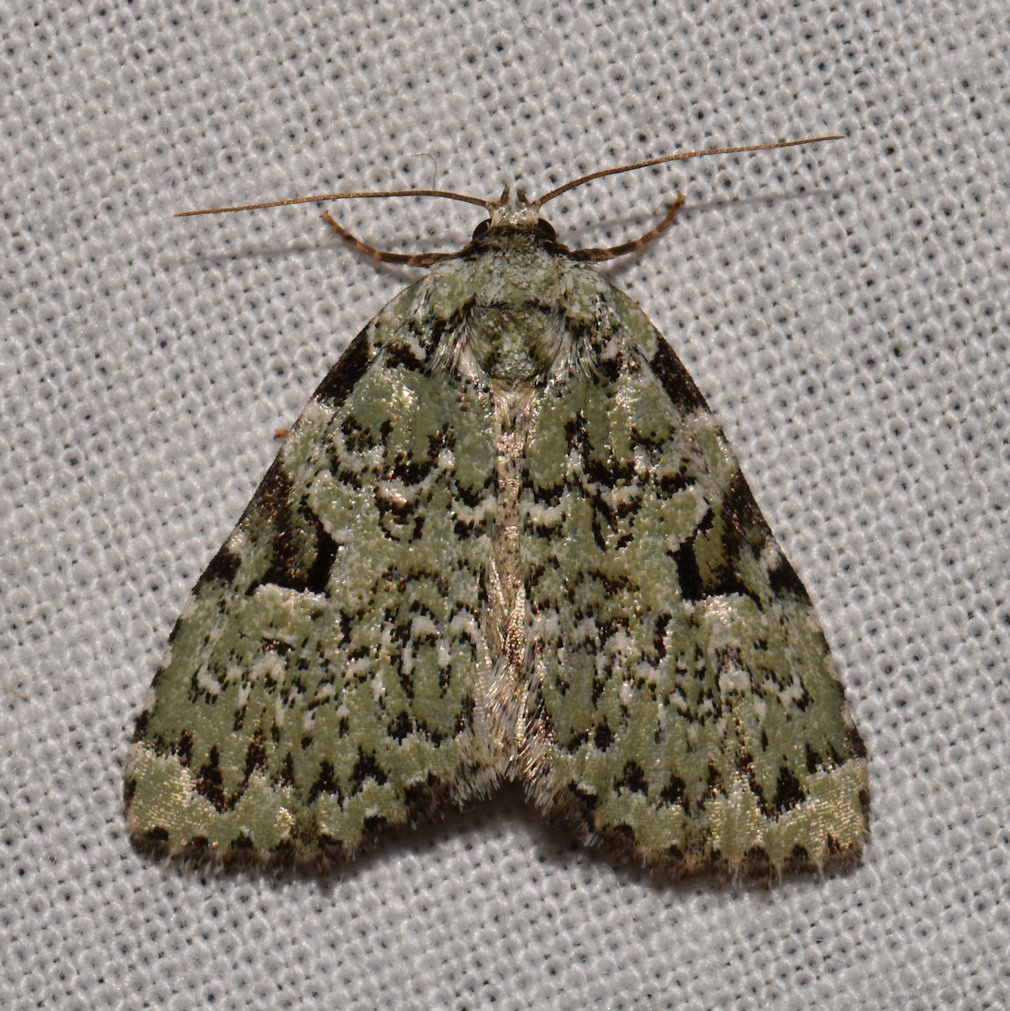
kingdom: Animalia
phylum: Arthropoda
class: Insecta
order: Lepidoptera
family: Noctuidae
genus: Leuconycta
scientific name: Leuconycta diphteroides
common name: Green leuconycta moth
